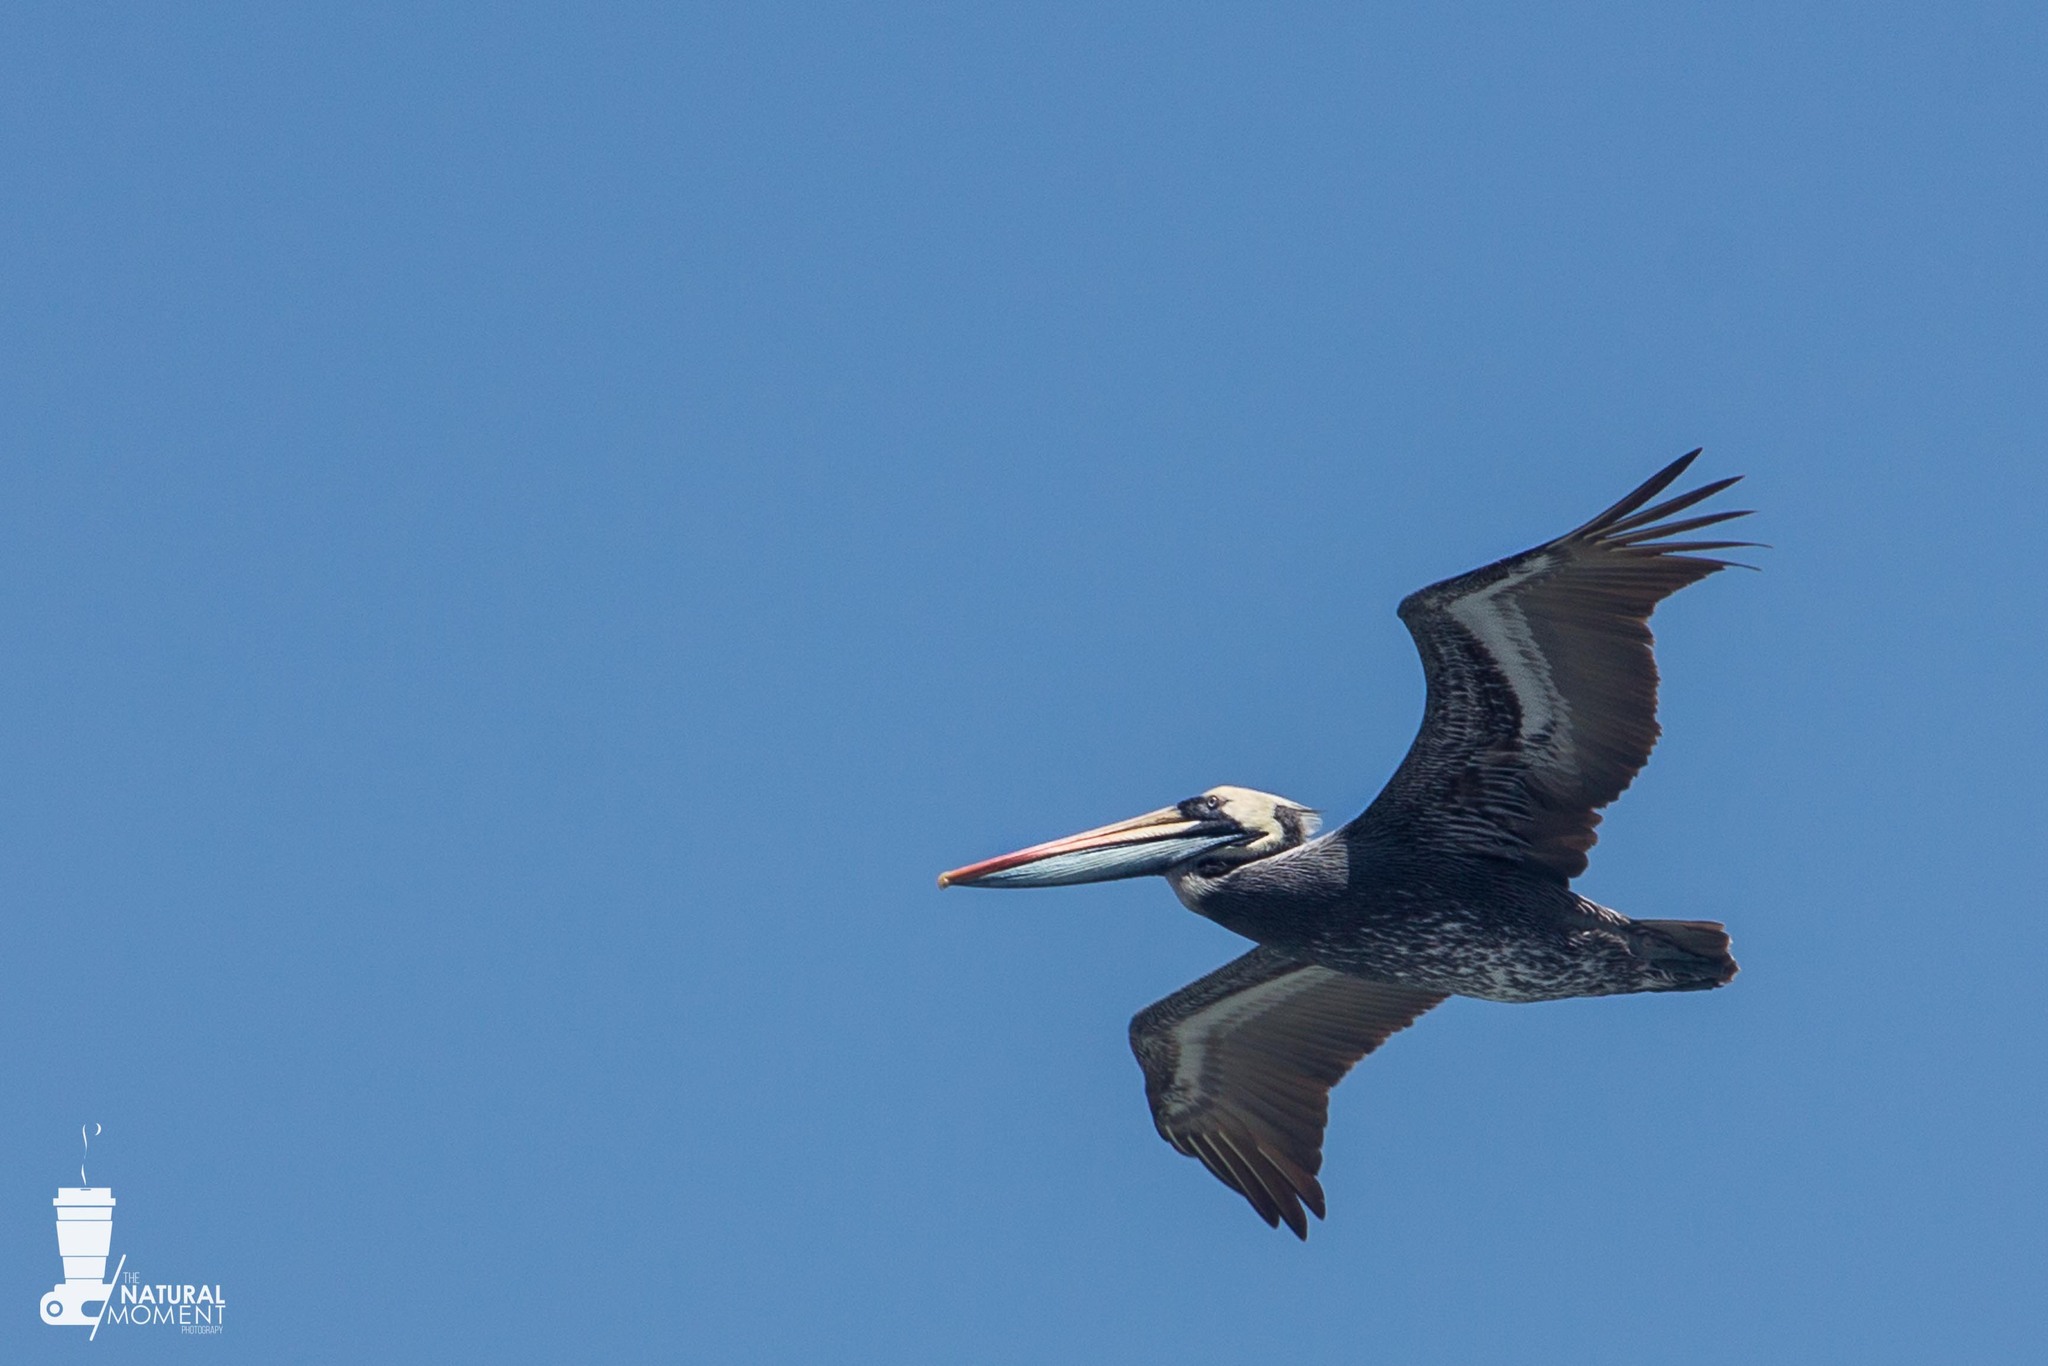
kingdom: Animalia
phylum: Chordata
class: Aves
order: Pelecaniformes
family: Pelecanidae
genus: Pelecanus
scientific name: Pelecanus thagus
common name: Peruvian pelican
